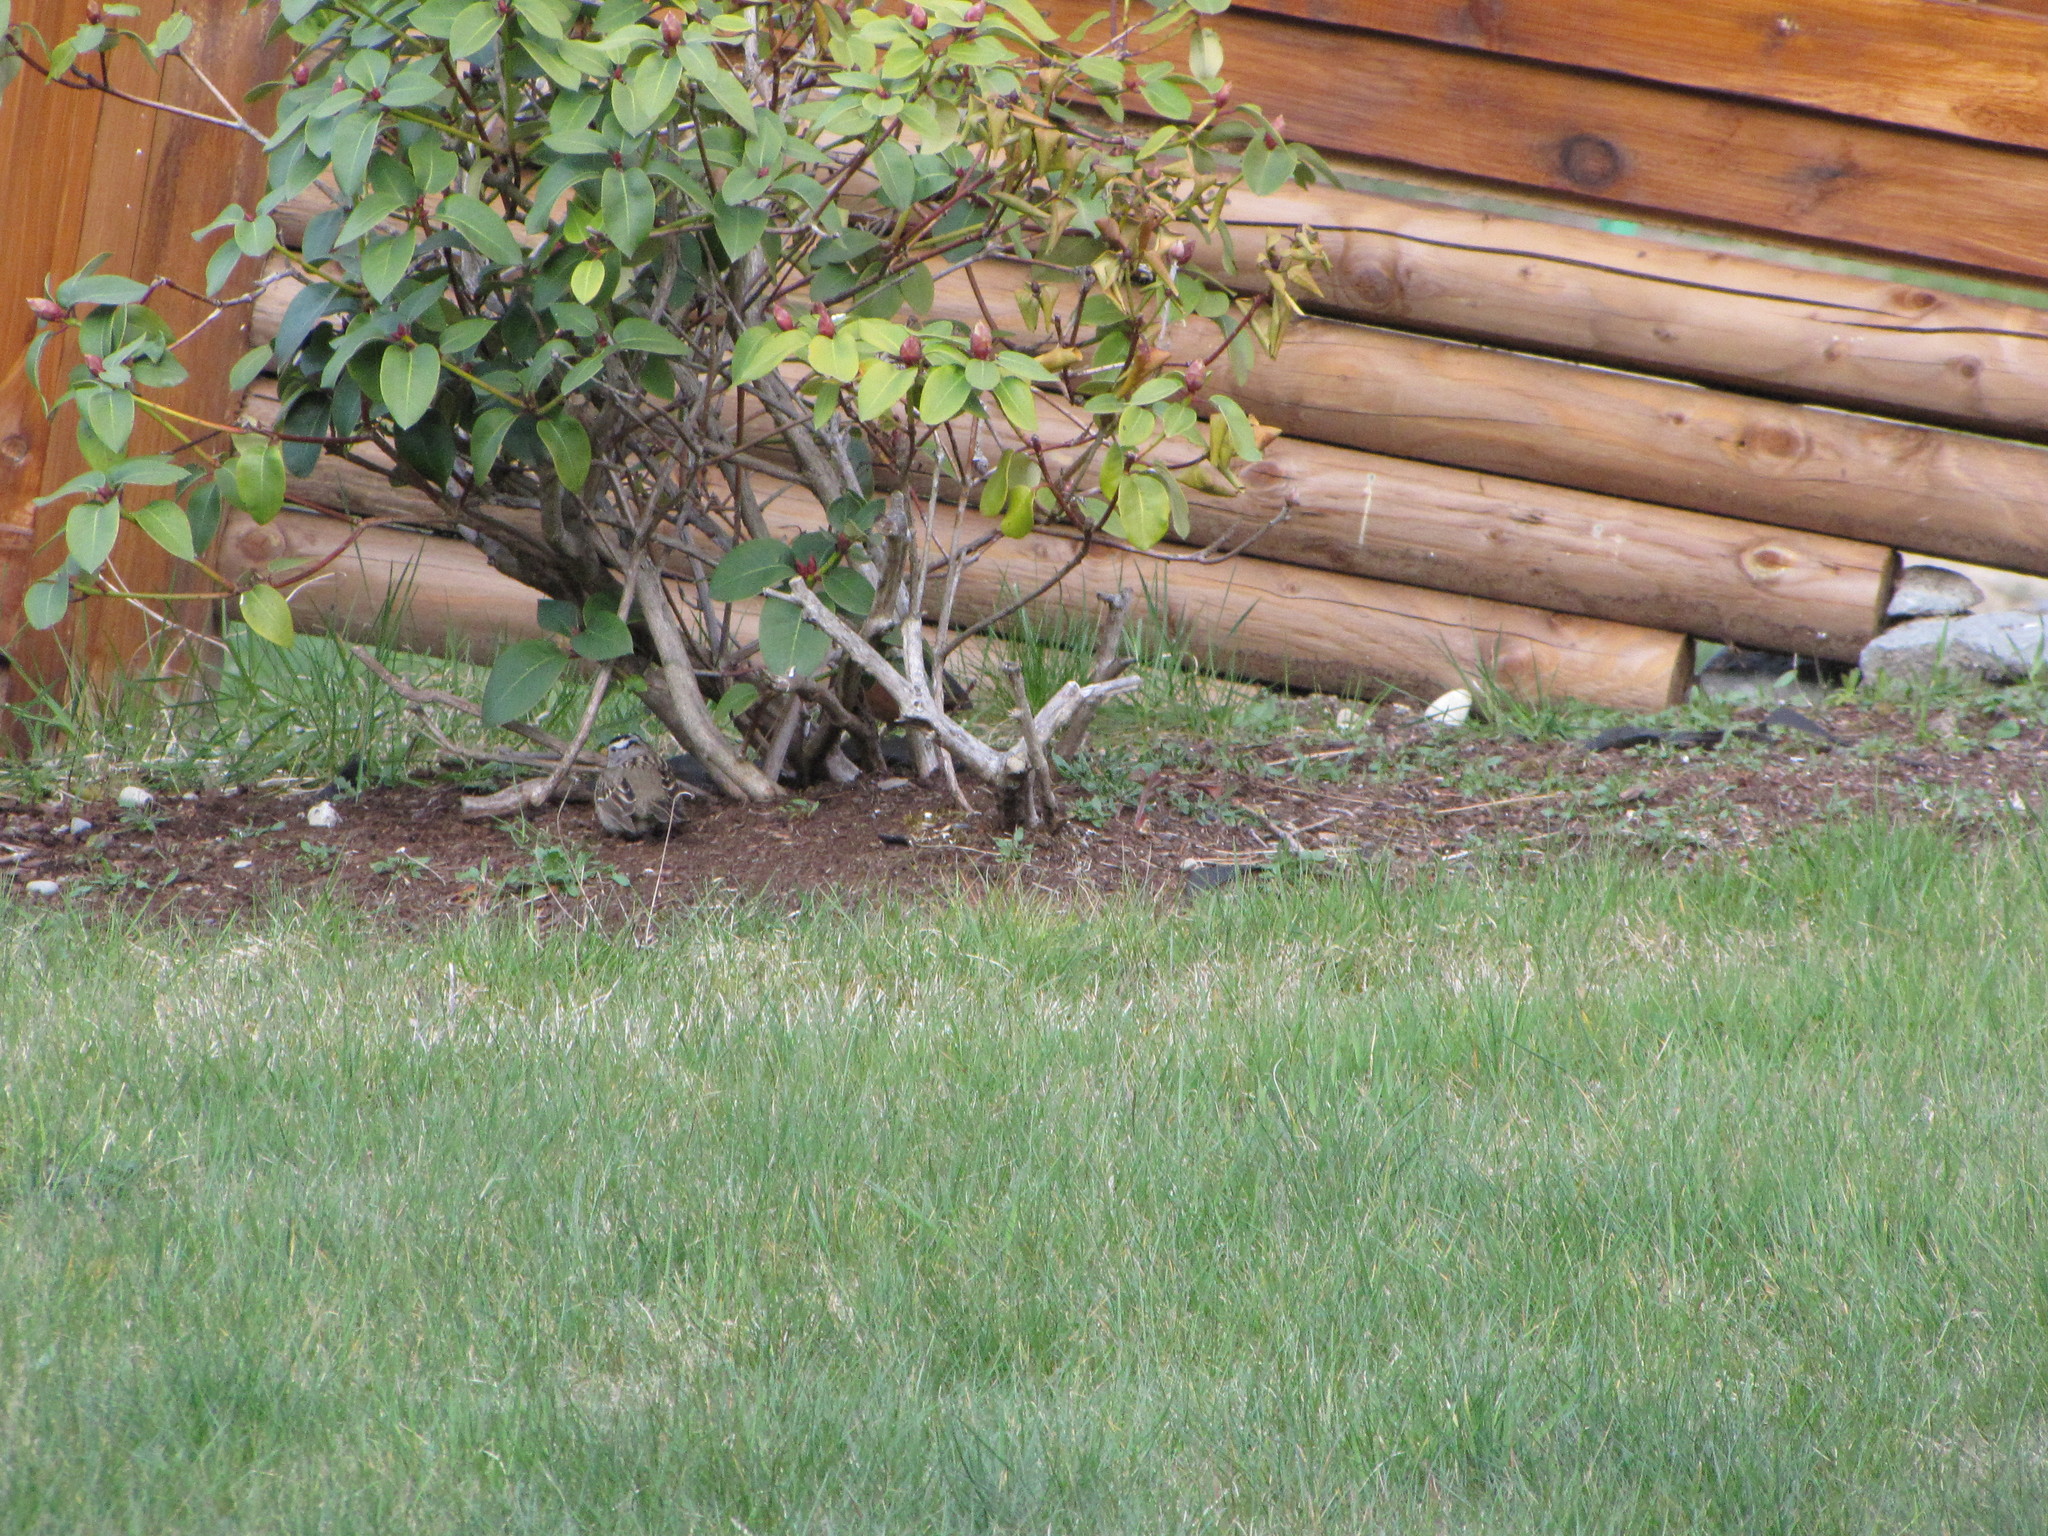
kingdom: Animalia
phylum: Chordata
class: Aves
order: Passeriformes
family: Passerellidae
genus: Zonotrichia
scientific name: Zonotrichia leucophrys
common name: White-crowned sparrow
